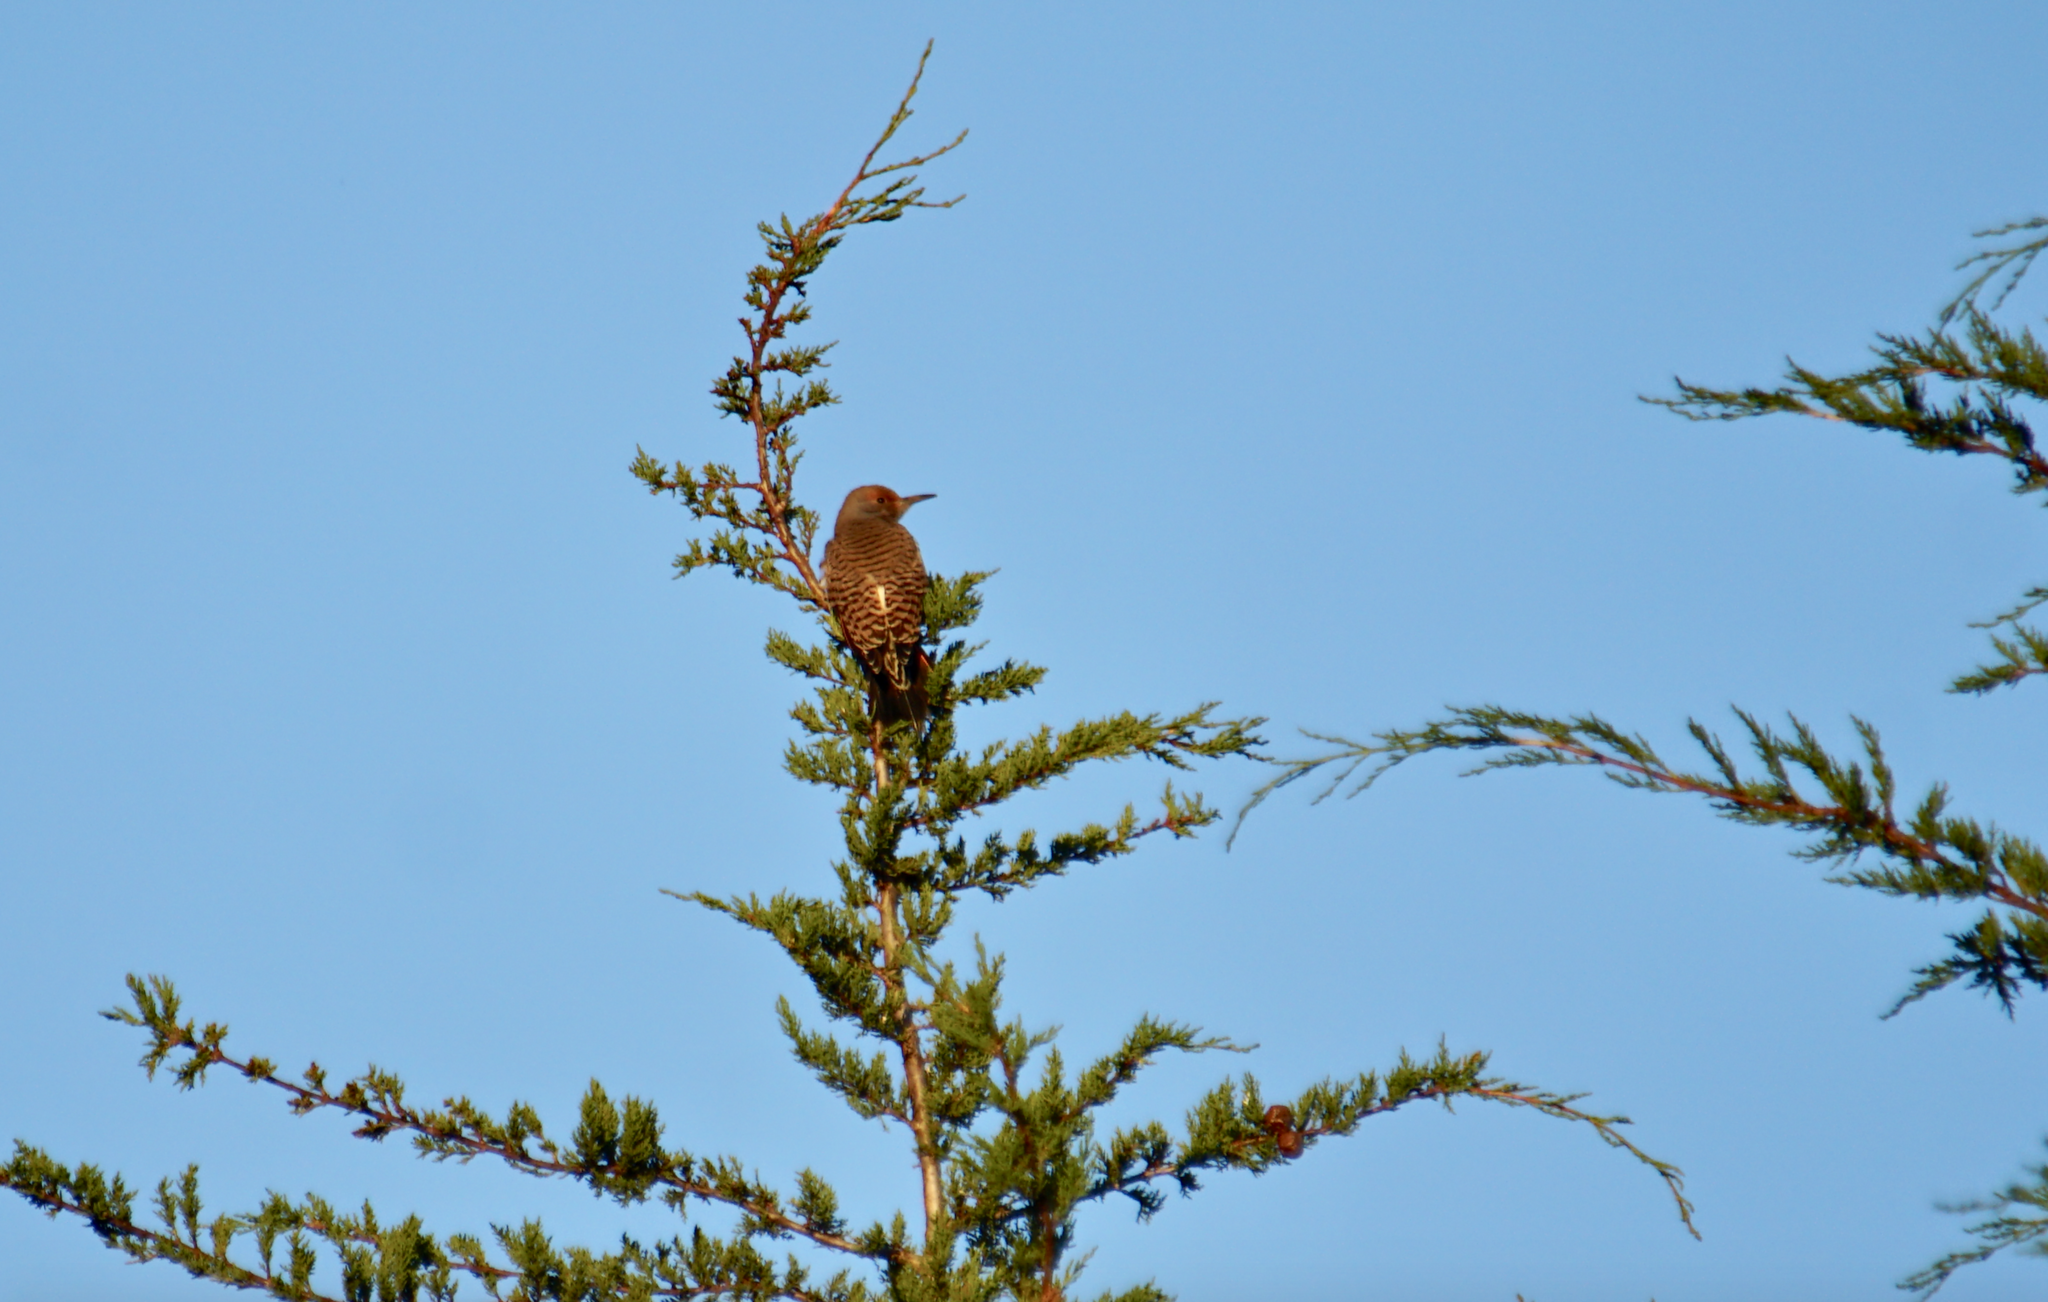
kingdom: Animalia
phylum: Chordata
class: Aves
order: Piciformes
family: Picidae
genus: Colaptes
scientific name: Colaptes auratus
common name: Northern flicker
